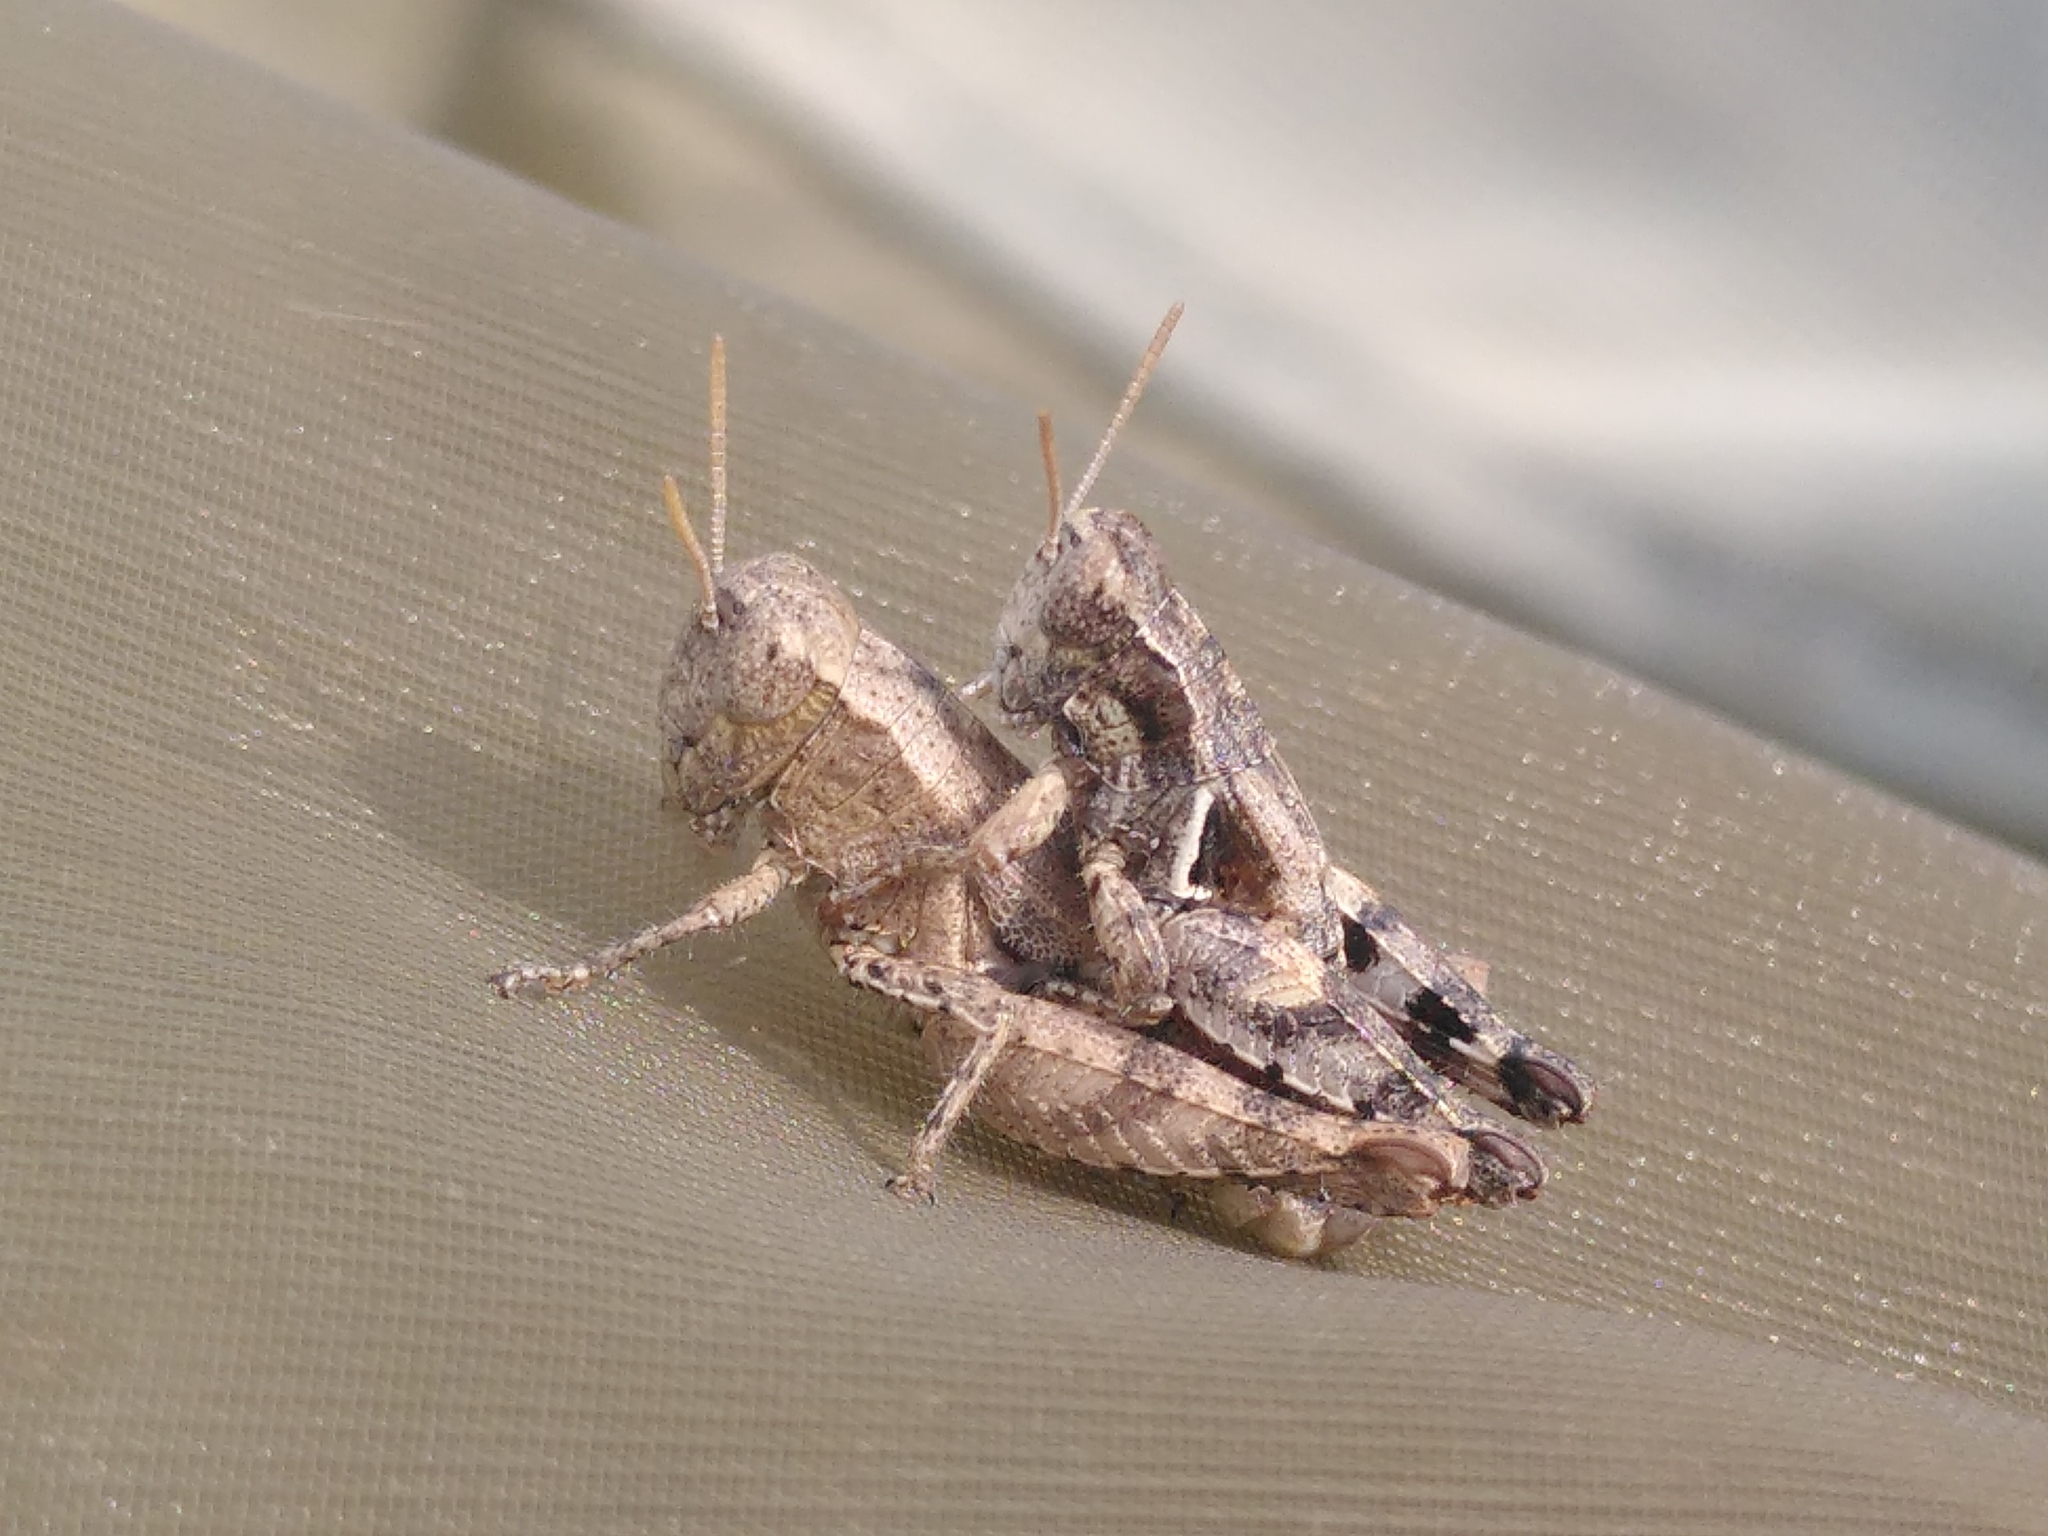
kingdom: Animalia
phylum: Arthropoda
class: Insecta
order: Orthoptera
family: Acrididae
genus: Pezotettix
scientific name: Pezotettix giornae
